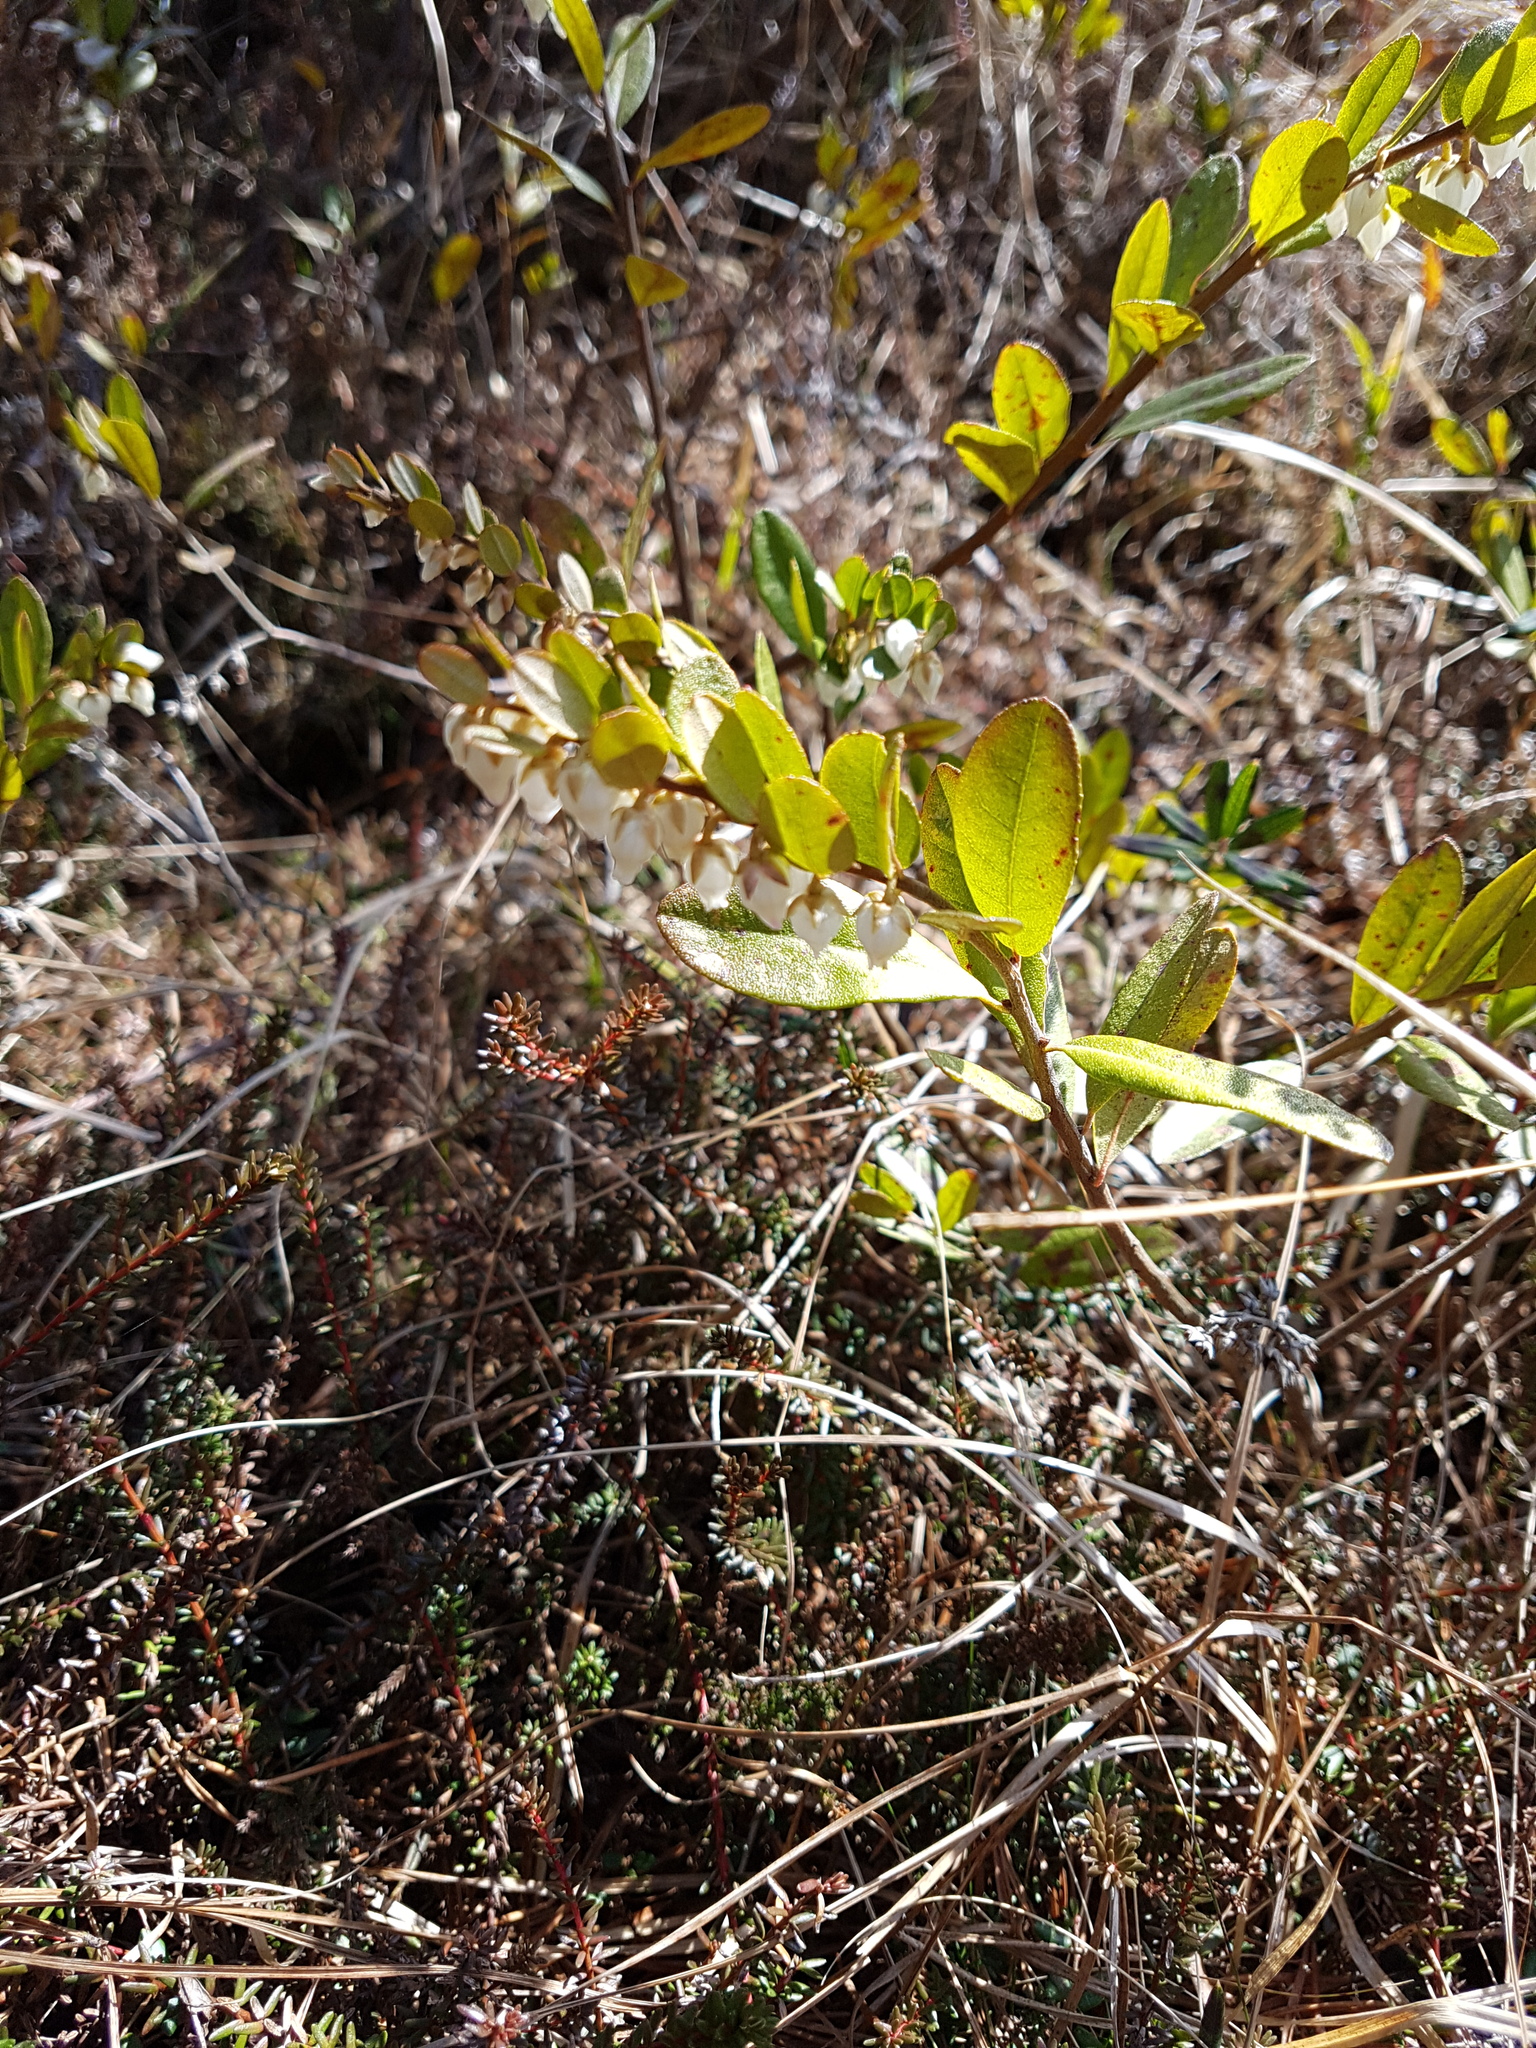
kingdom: Plantae
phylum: Tracheophyta
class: Magnoliopsida
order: Ericales
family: Ericaceae
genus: Chamaedaphne
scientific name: Chamaedaphne calyculata
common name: Leatherleaf
